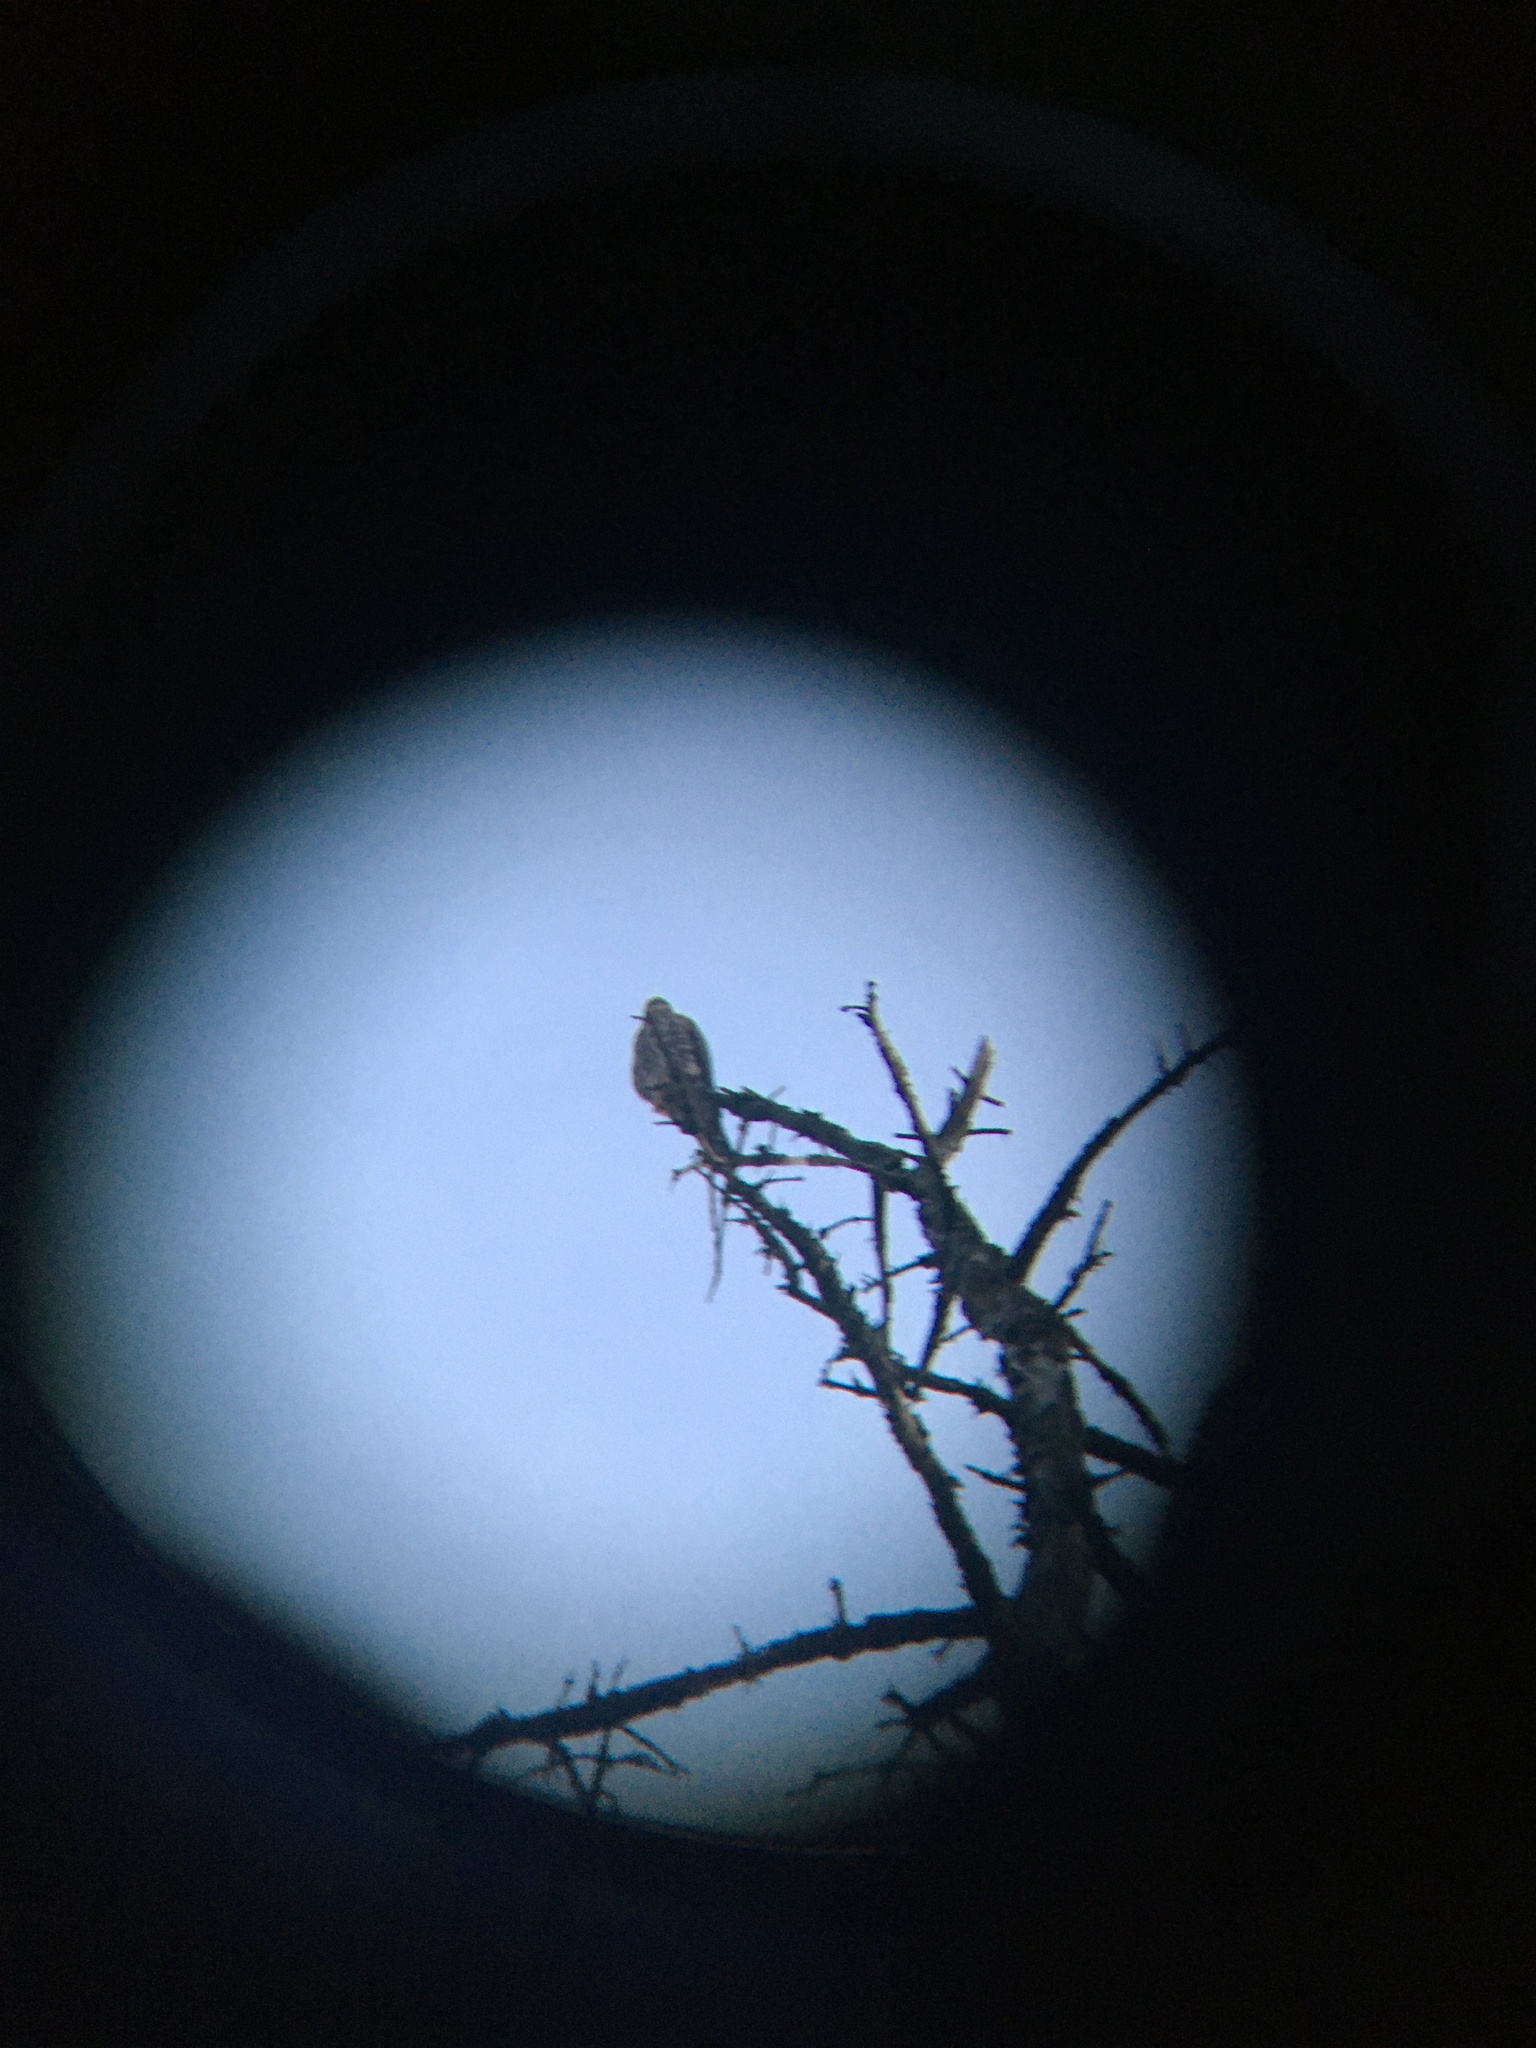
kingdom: Animalia
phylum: Chordata
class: Aves
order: Falconiformes
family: Falconidae
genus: Falco
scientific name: Falco columbarius
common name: Merlin
